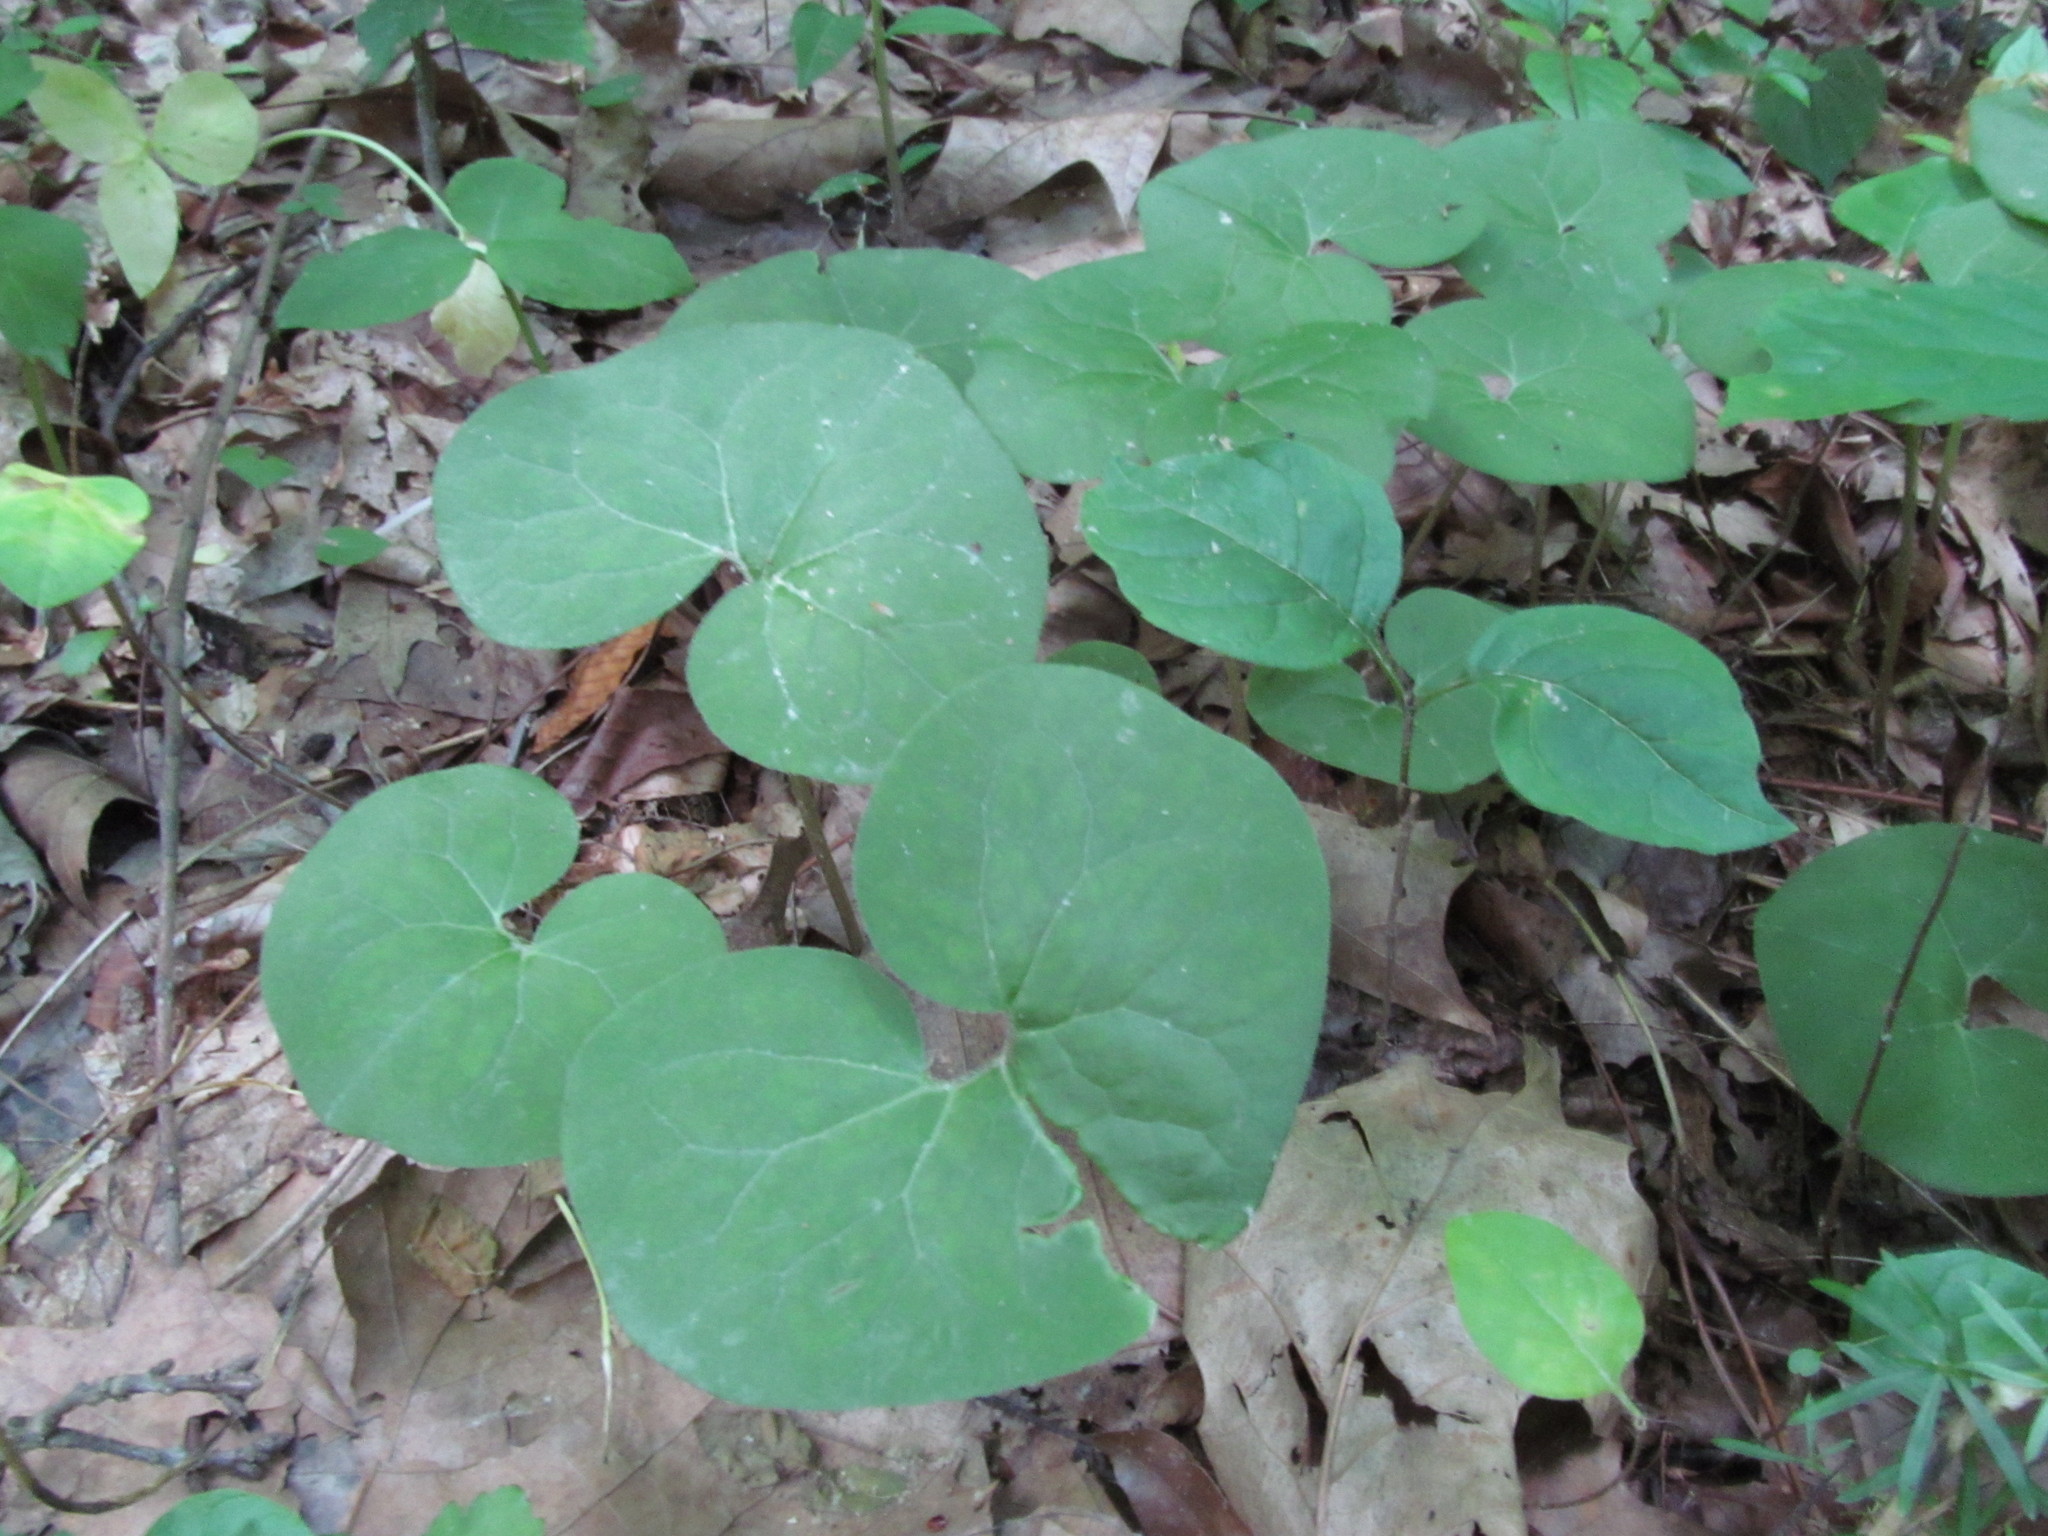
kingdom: Plantae
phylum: Tracheophyta
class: Magnoliopsida
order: Piperales
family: Aristolochiaceae
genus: Asarum
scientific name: Asarum canadense
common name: Wild ginger
